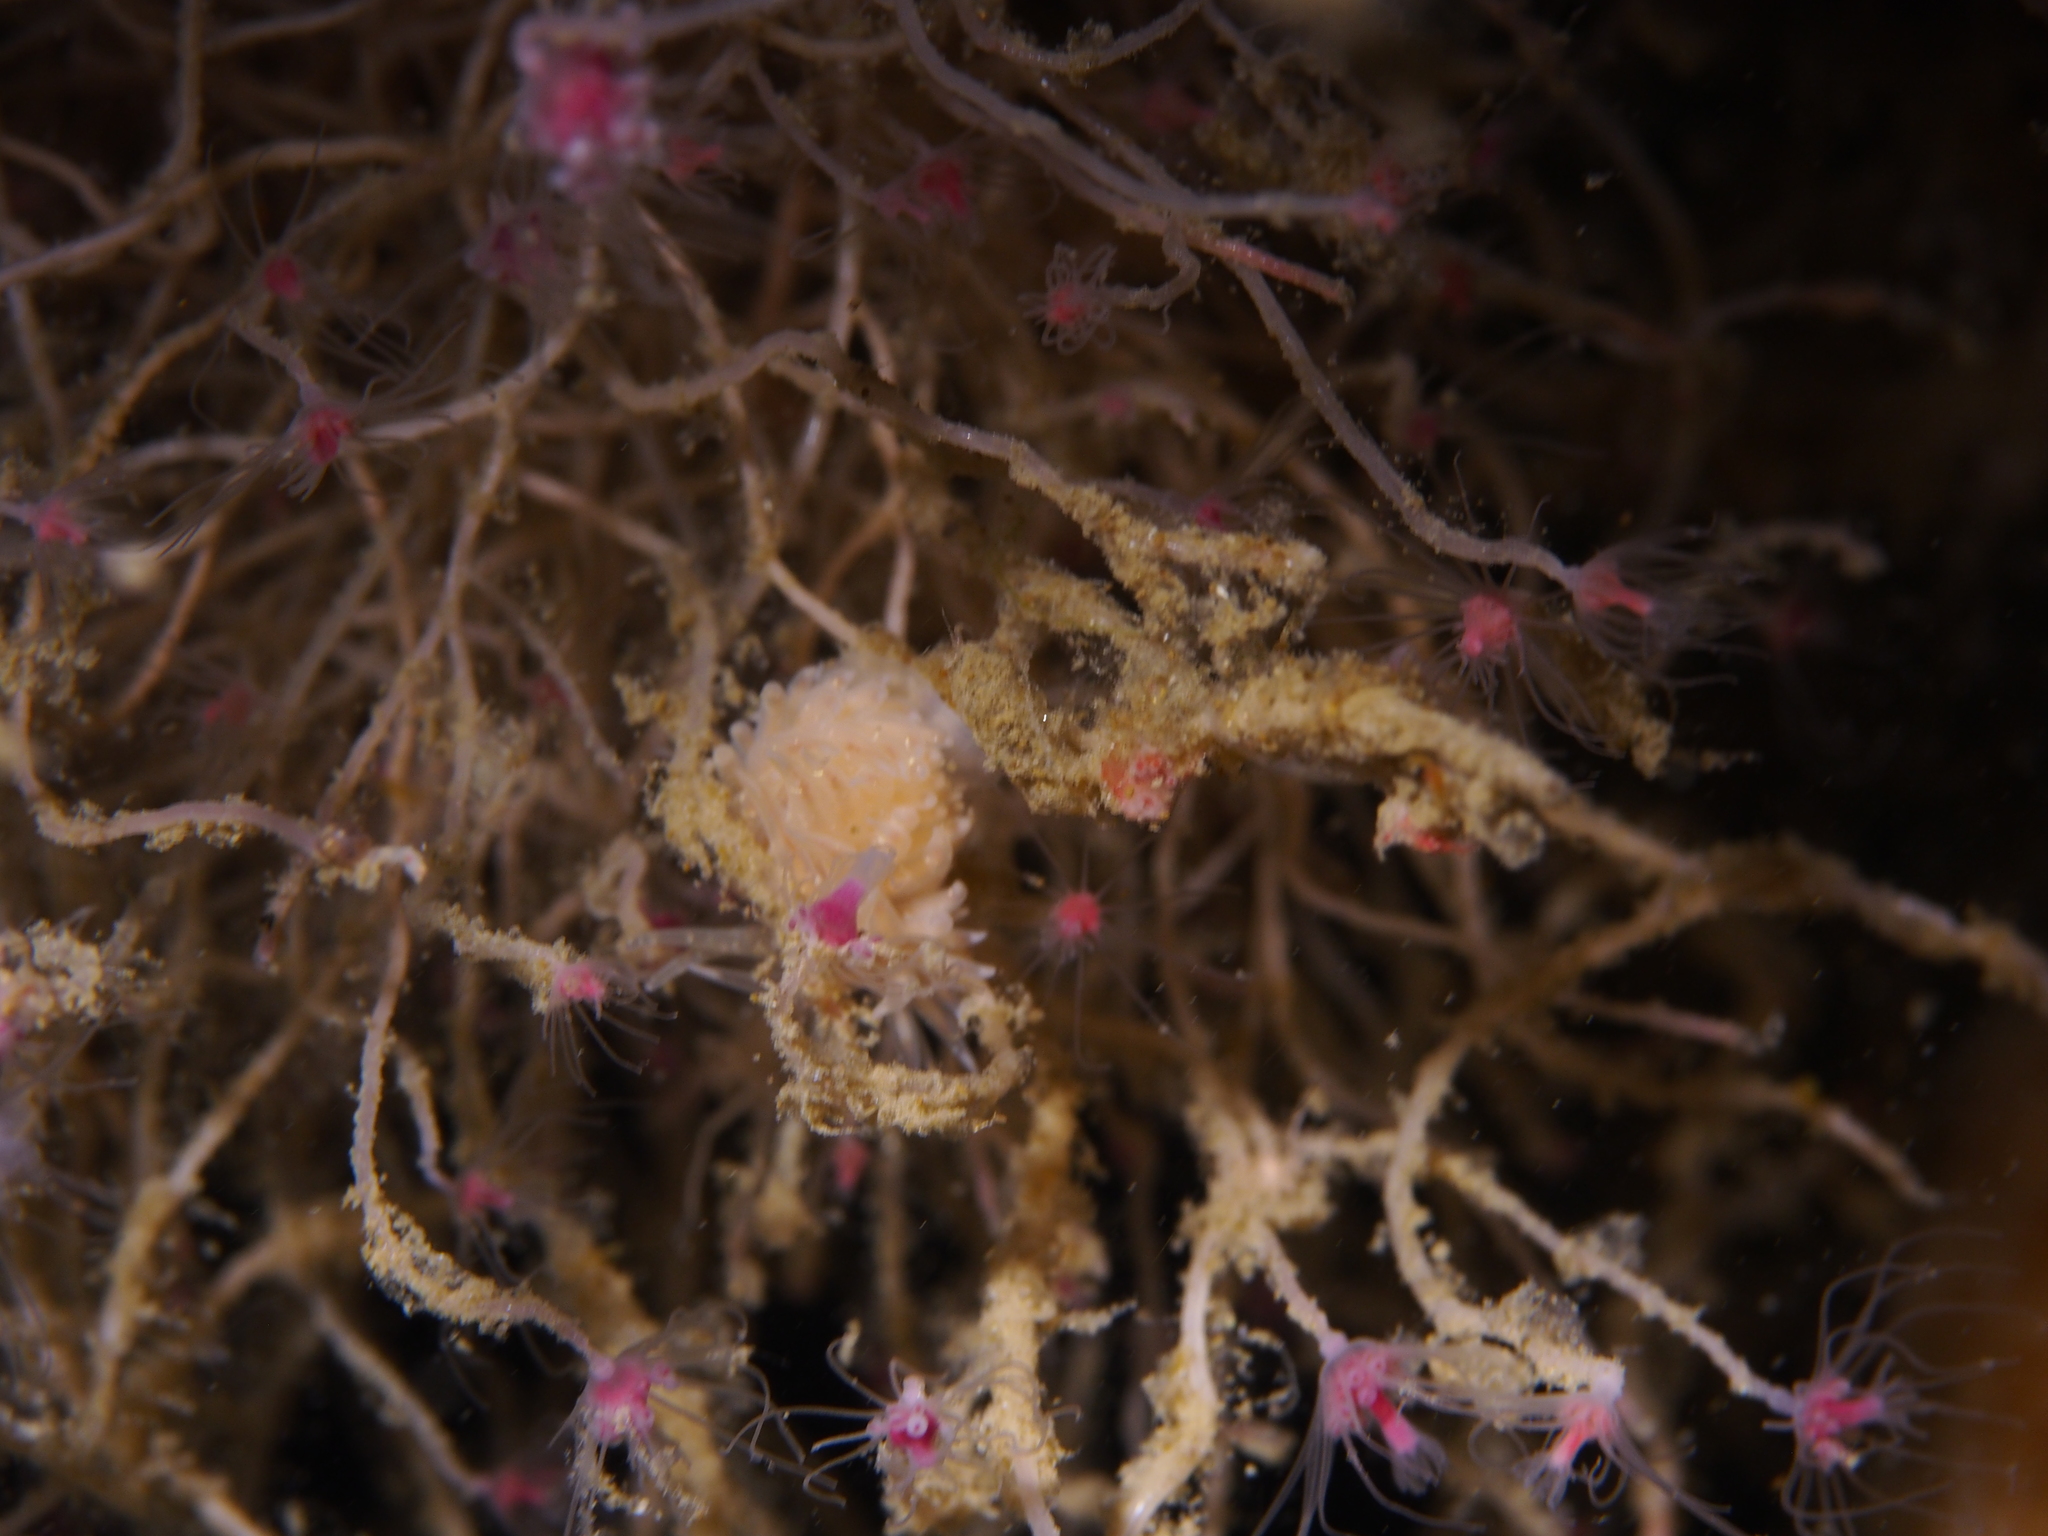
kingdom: Animalia
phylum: Mollusca
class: Gastropoda
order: Nudibranchia
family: Cumanotidae
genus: Cumanotus
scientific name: Cumanotus beaumonti
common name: Polyp aeolis
